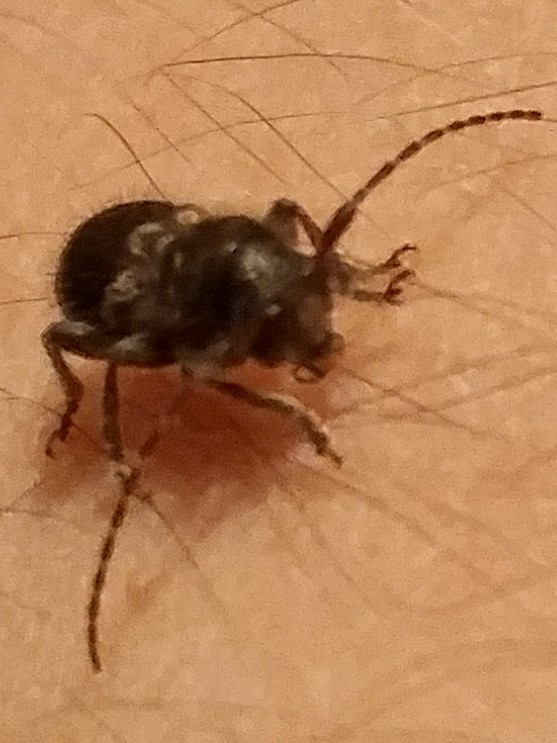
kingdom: Animalia
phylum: Arthropoda
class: Insecta
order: Coleoptera
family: Cerambycidae
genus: Ipochus
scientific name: Ipochus fasciatus
